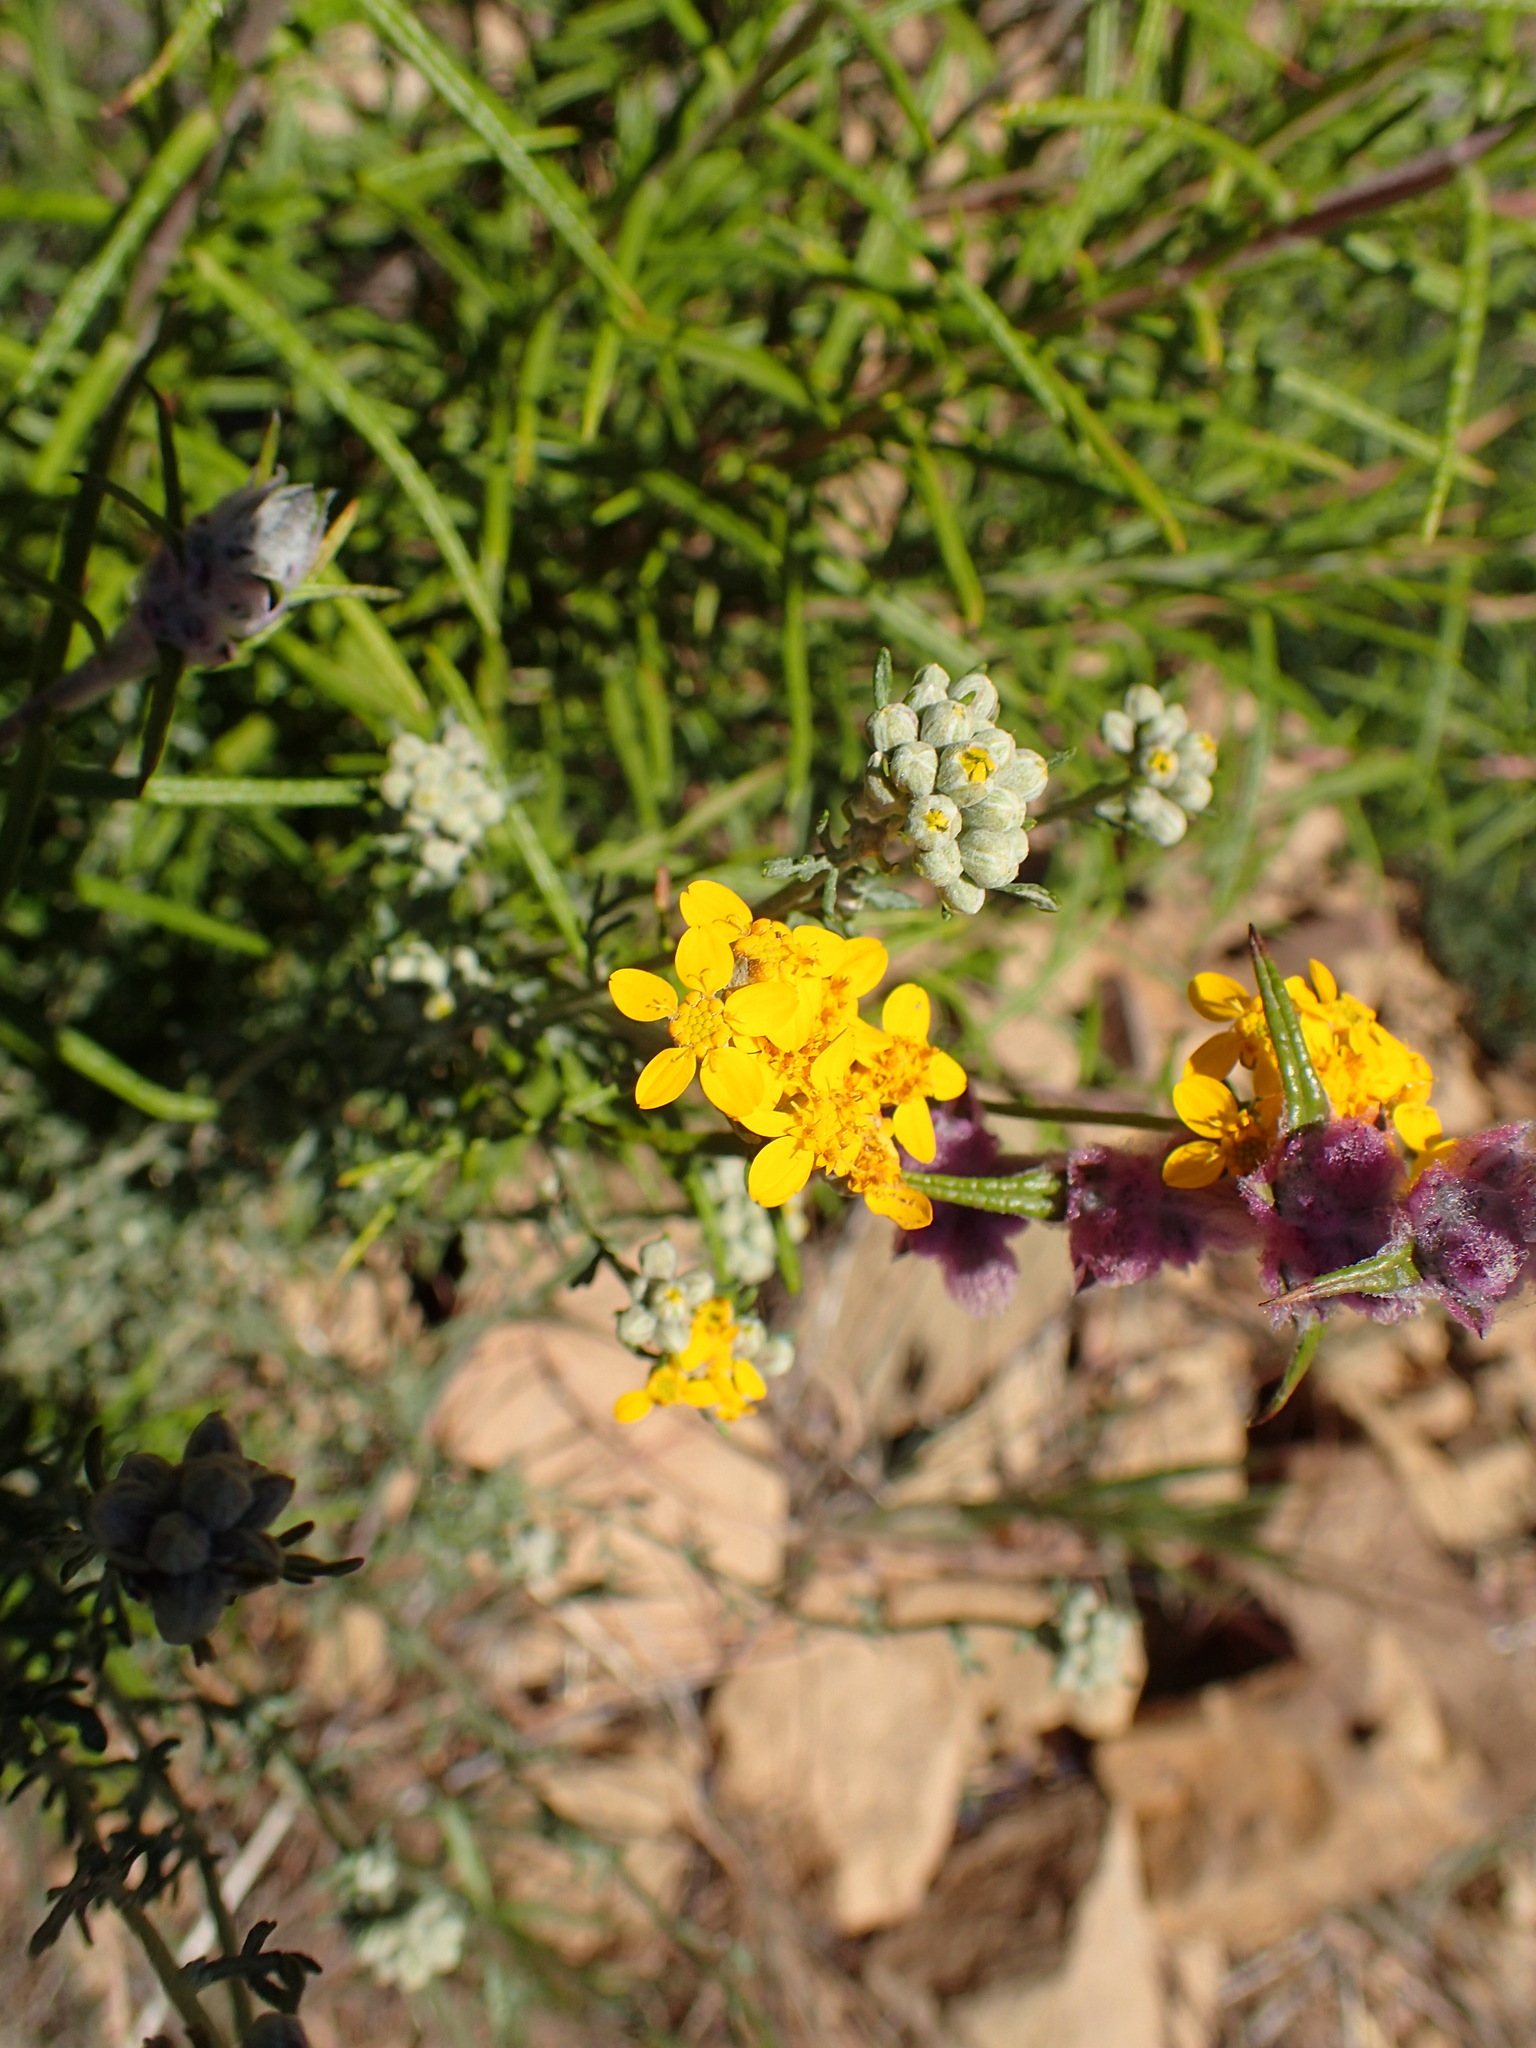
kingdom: Plantae
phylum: Tracheophyta
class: Magnoliopsida
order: Asterales
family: Asteraceae
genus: Eriophyllum
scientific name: Eriophyllum confertiflorum
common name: Golden-yarrow
